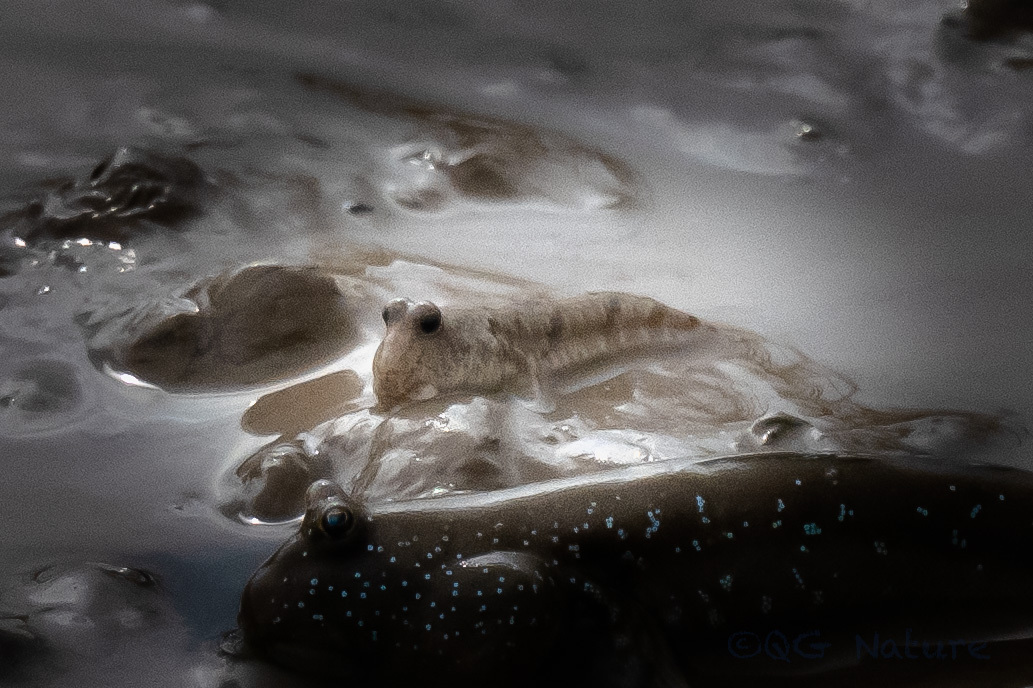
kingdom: Animalia
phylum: Chordata
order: Perciformes
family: Gobiidae
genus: Periophthalmus
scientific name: Periophthalmus modestus
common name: Black goby
